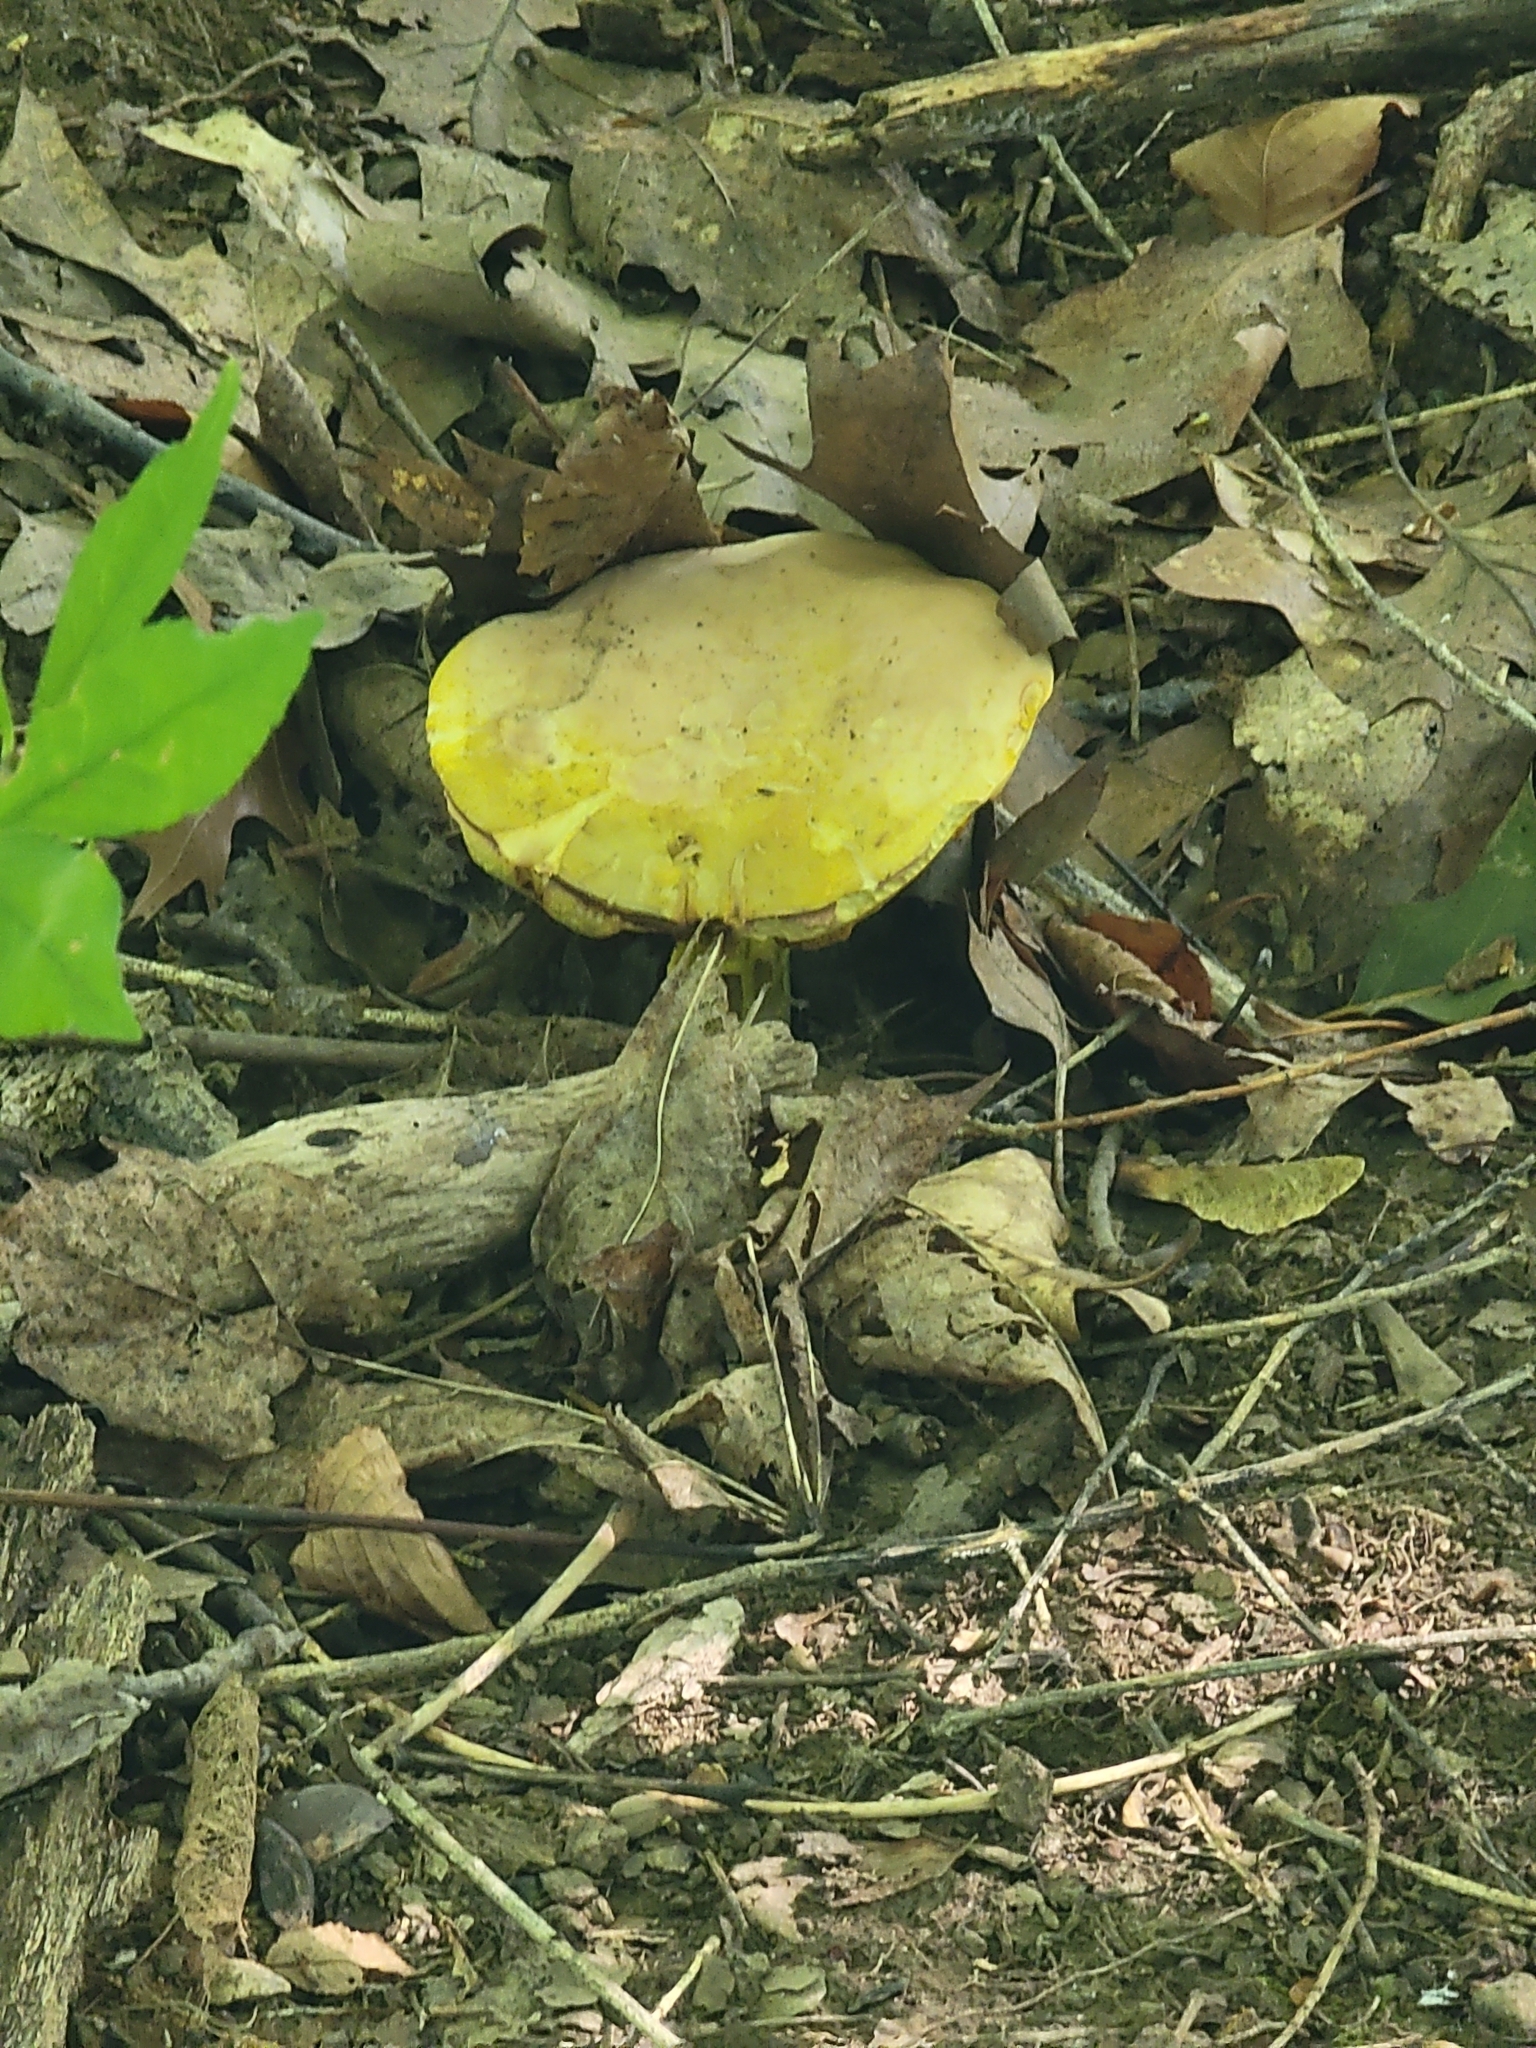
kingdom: Fungi
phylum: Basidiomycota
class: Agaricomycetes
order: Boletales
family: Boletaceae
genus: Retiboletus
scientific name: Retiboletus ornatipes
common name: Ornate-stalked bolete
